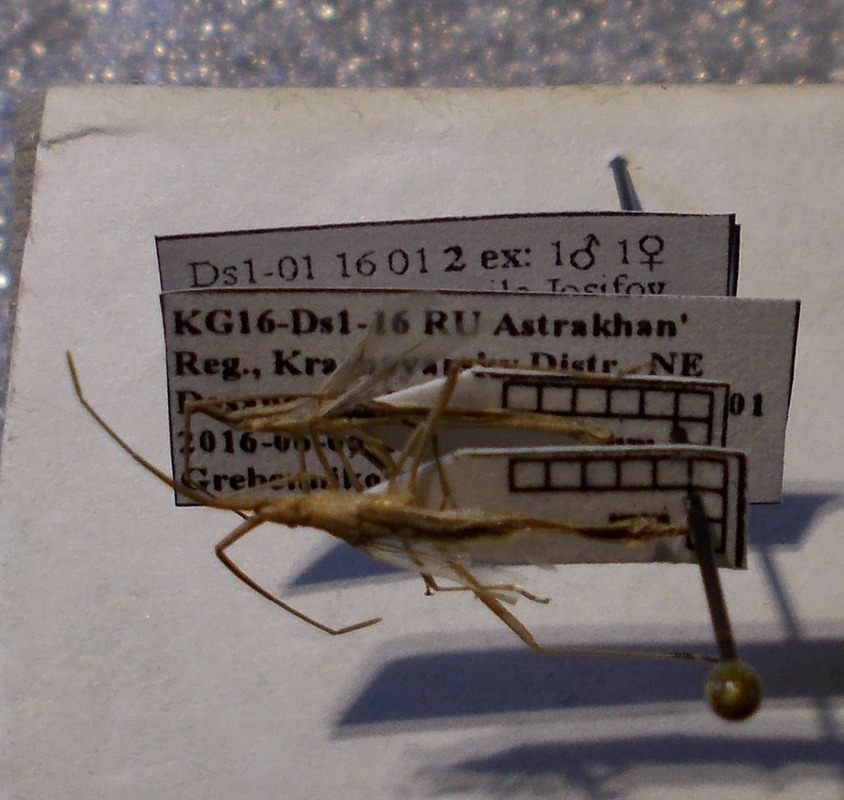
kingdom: Animalia
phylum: Arthropoda
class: Insecta
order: Hemiptera
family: Rhopalidae
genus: Chorosoma
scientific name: Chorosoma gracile
